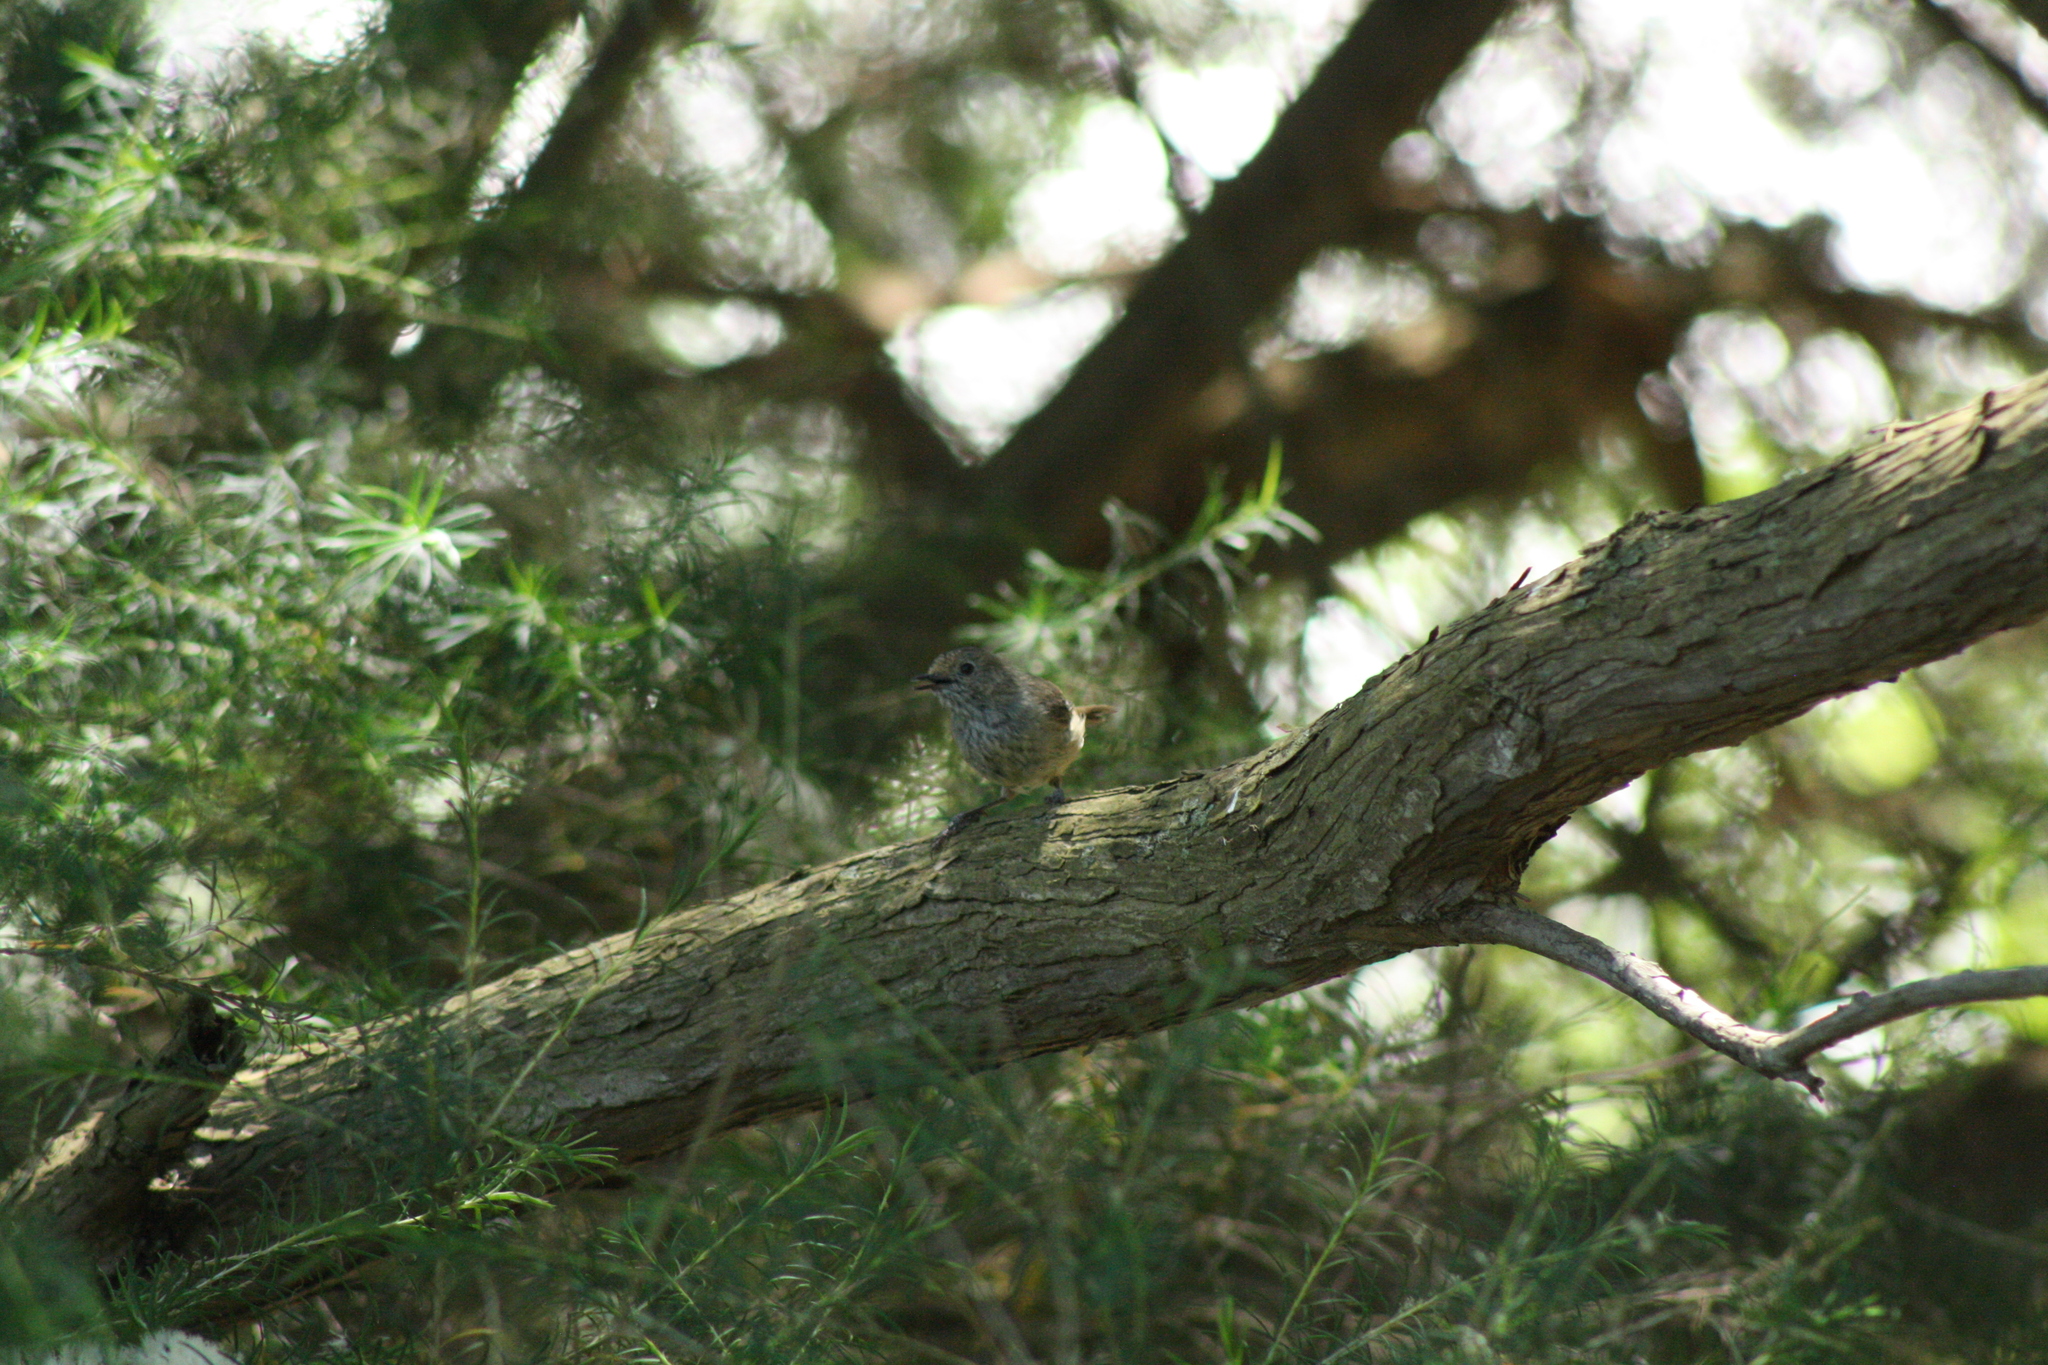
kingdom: Animalia
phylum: Chordata
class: Aves
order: Passeriformes
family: Acanthizidae
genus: Acanthiza
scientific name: Acanthiza pusilla
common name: Brown thornbill
